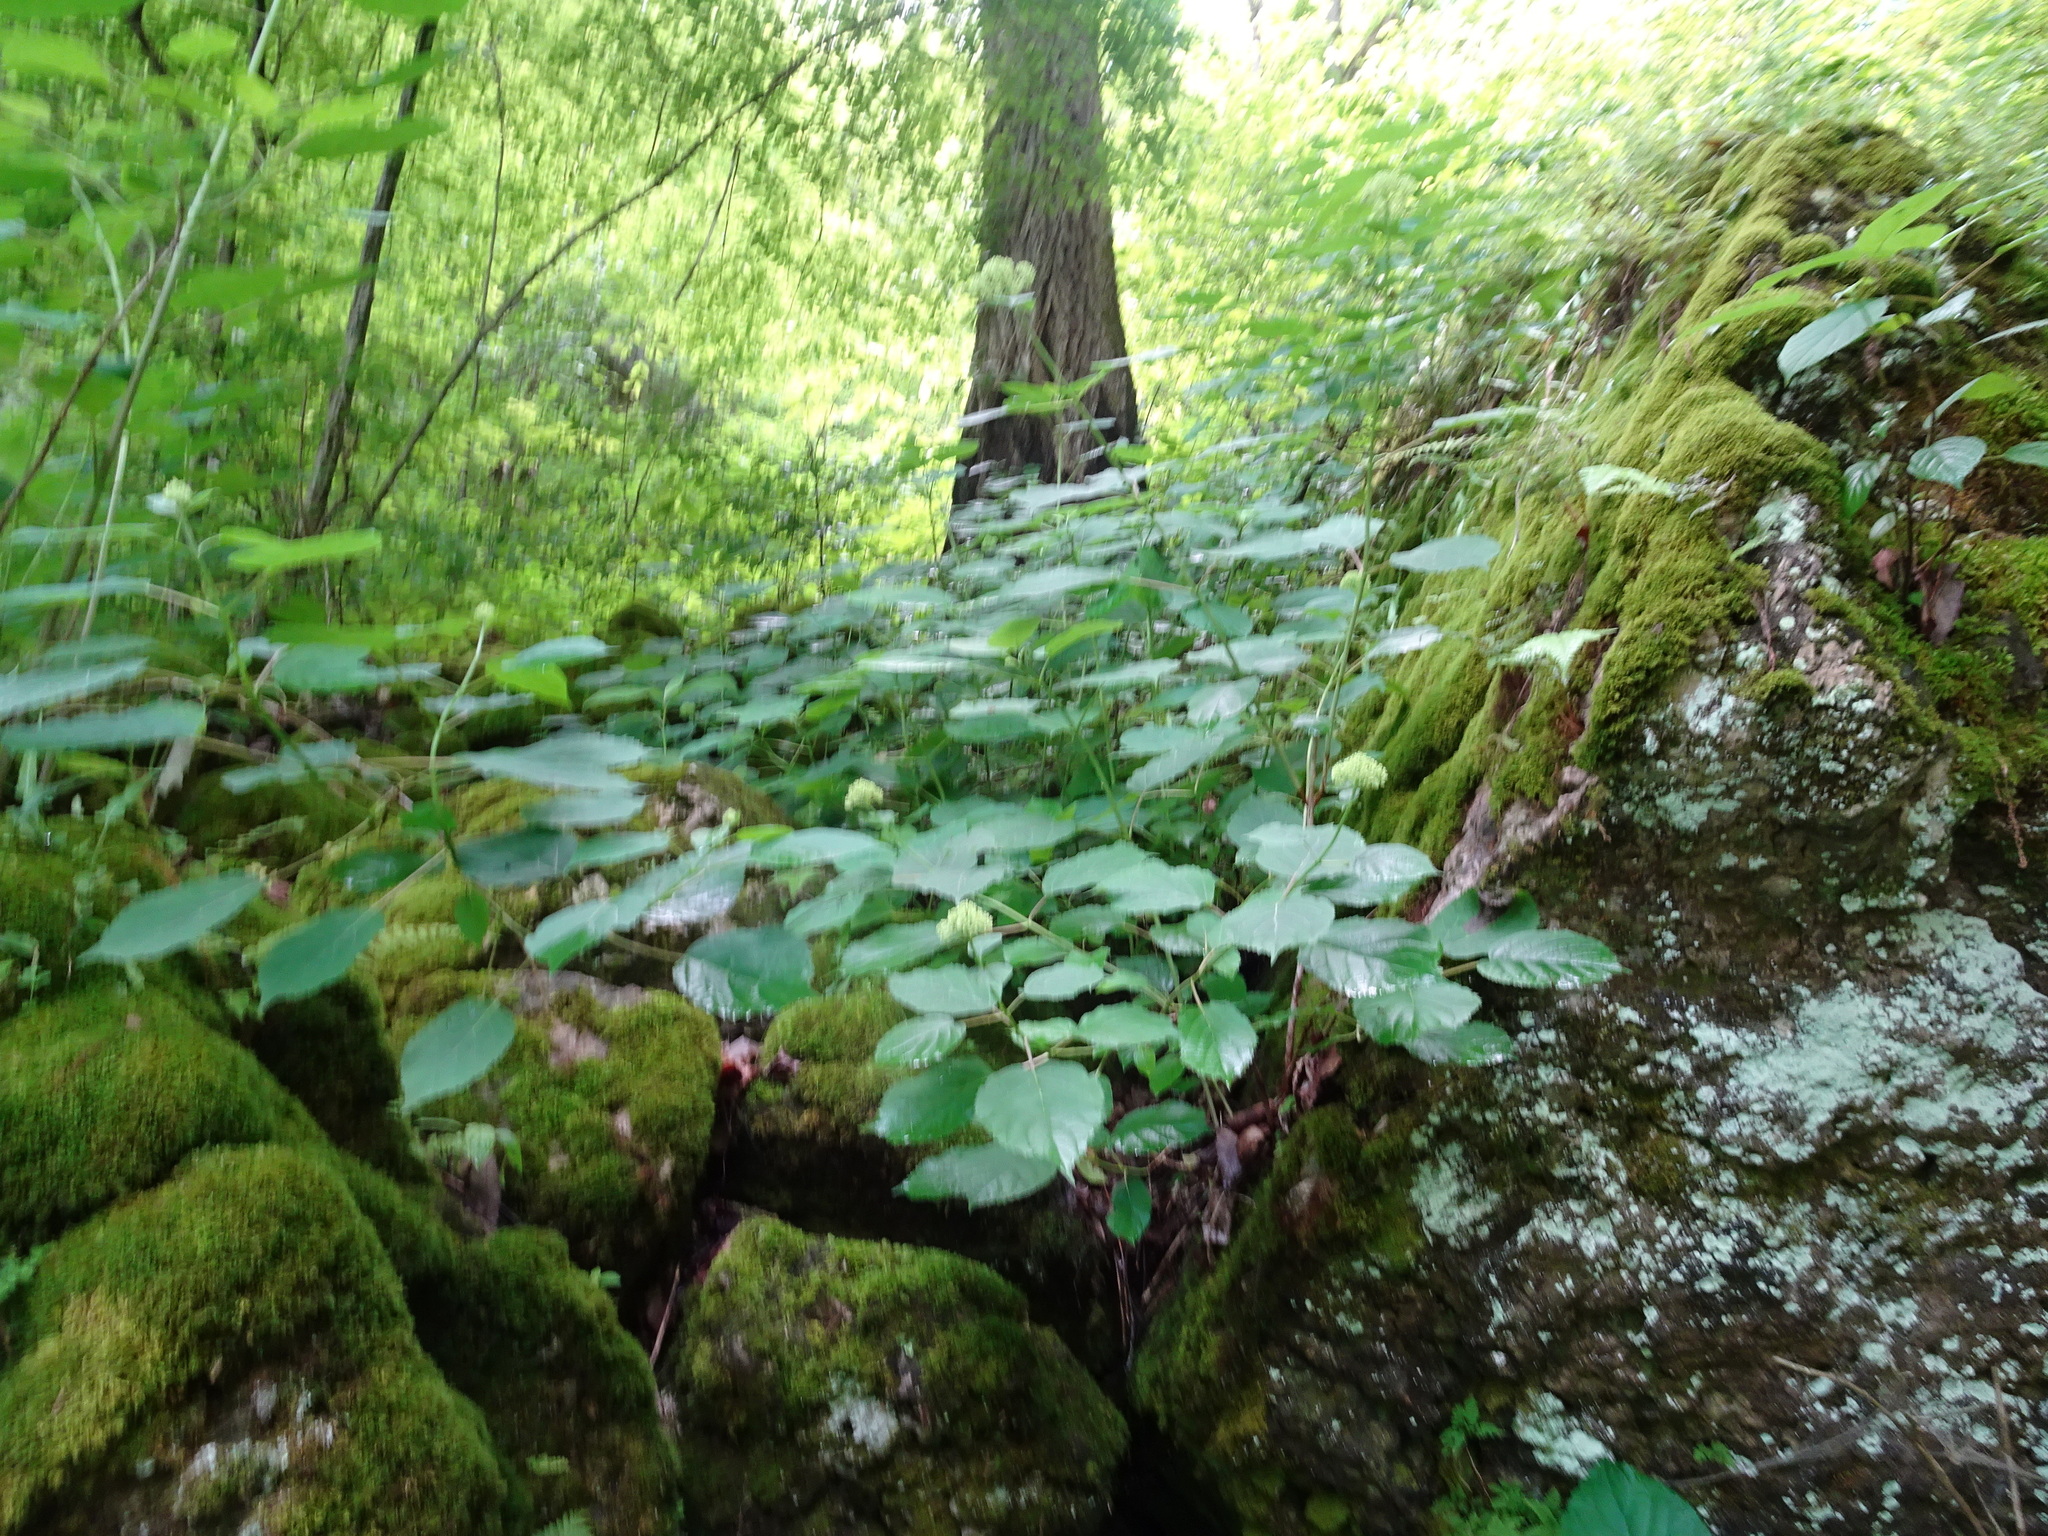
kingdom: Plantae
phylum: Tracheophyta
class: Magnoliopsida
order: Cornales
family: Hydrangeaceae
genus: Hydrangea
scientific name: Hydrangea arborescens
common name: Sevenbark
